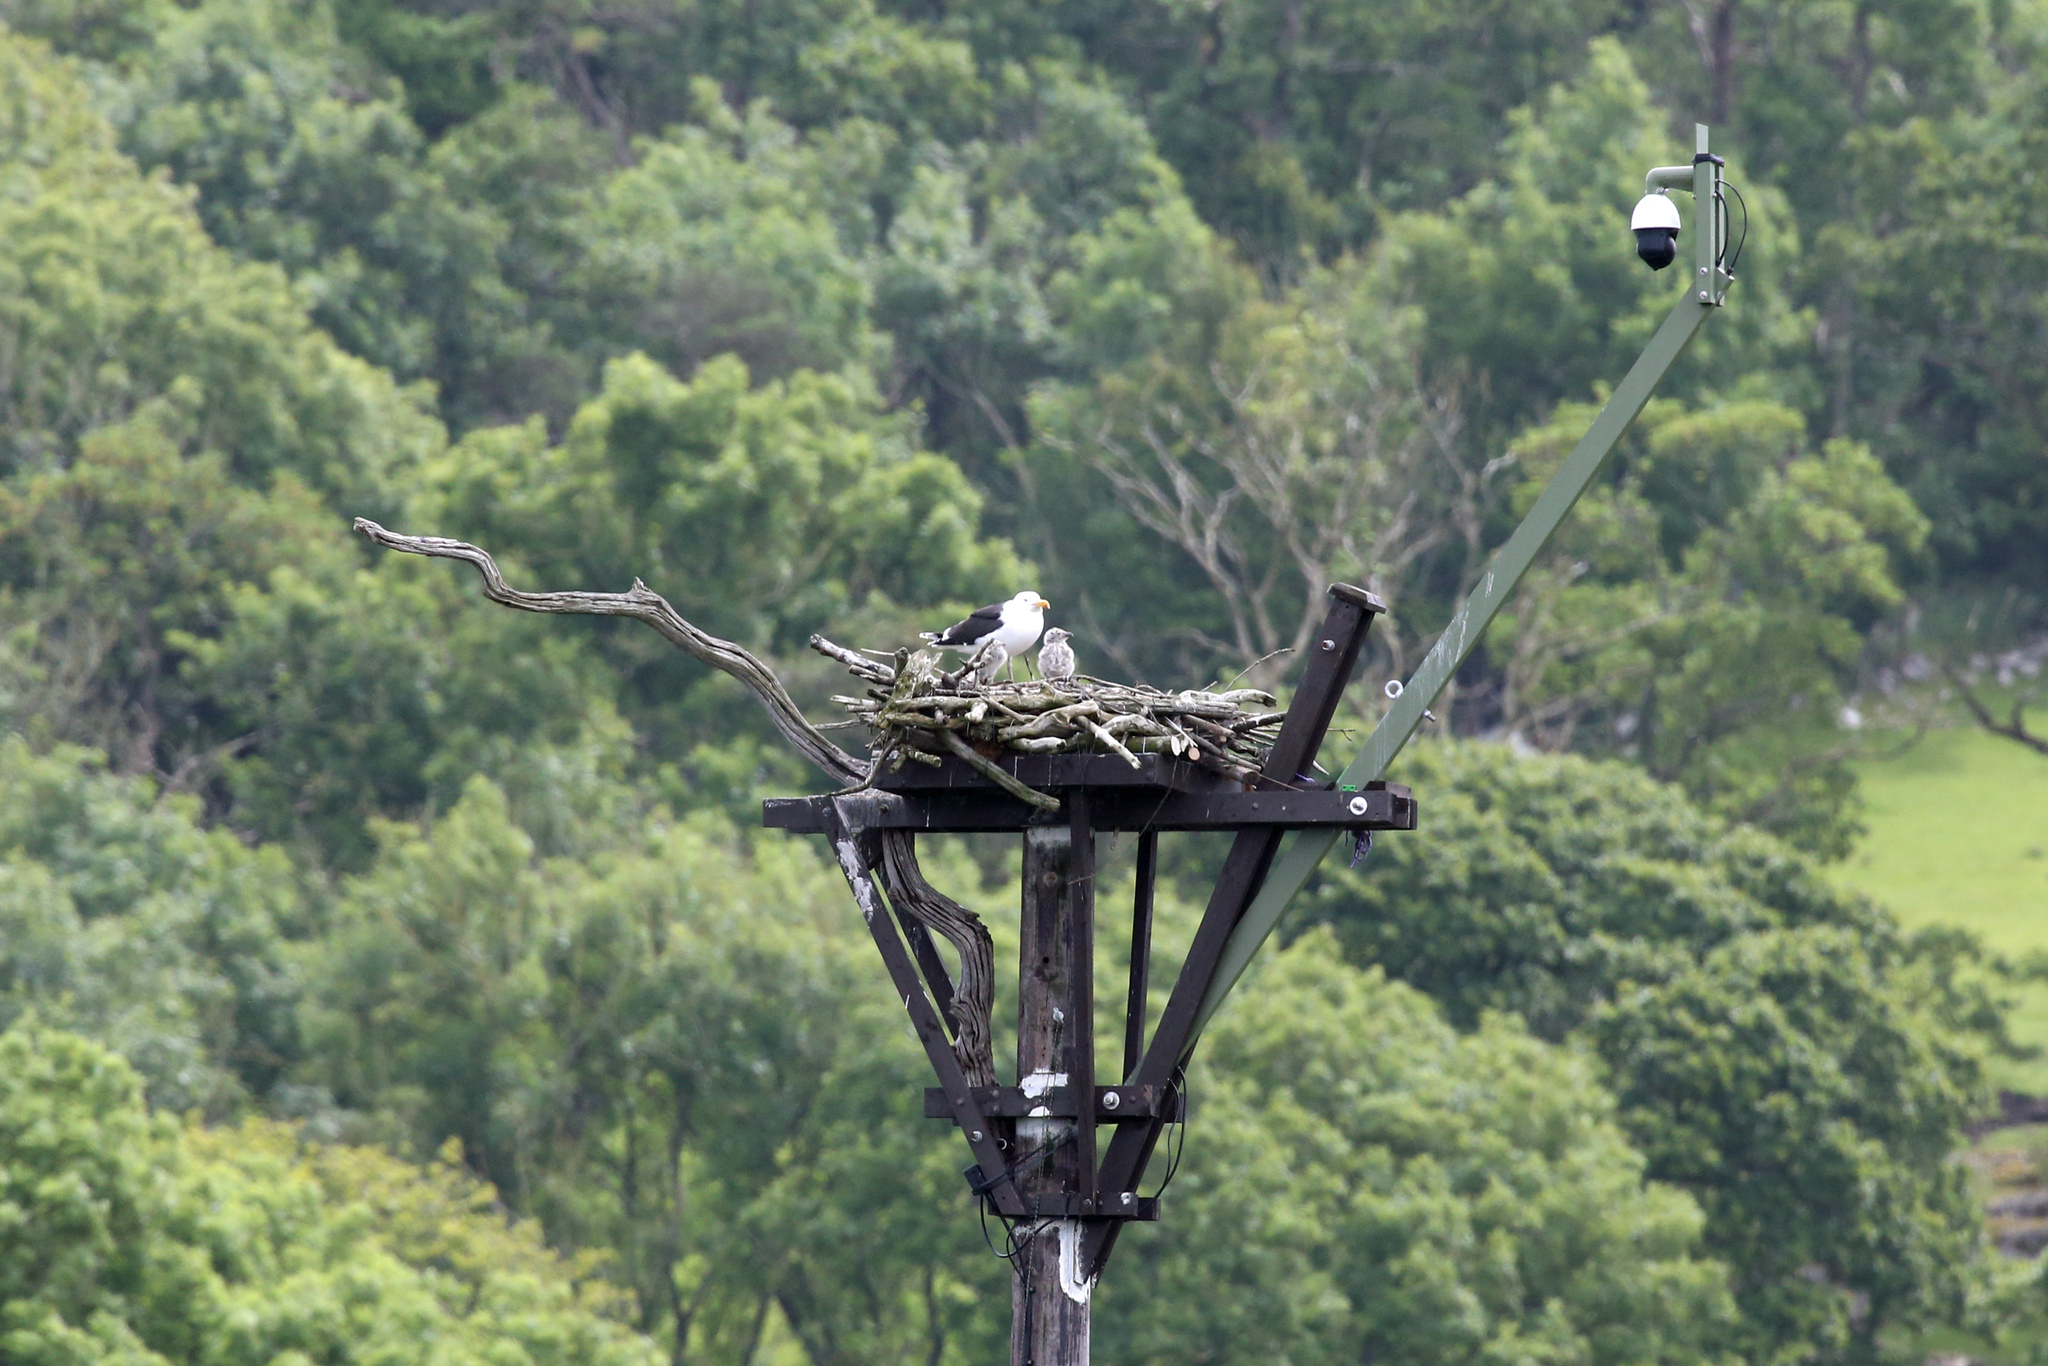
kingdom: Animalia
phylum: Chordata
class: Aves
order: Charadriiformes
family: Laridae
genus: Larus
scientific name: Larus marinus
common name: Great black-backed gull
